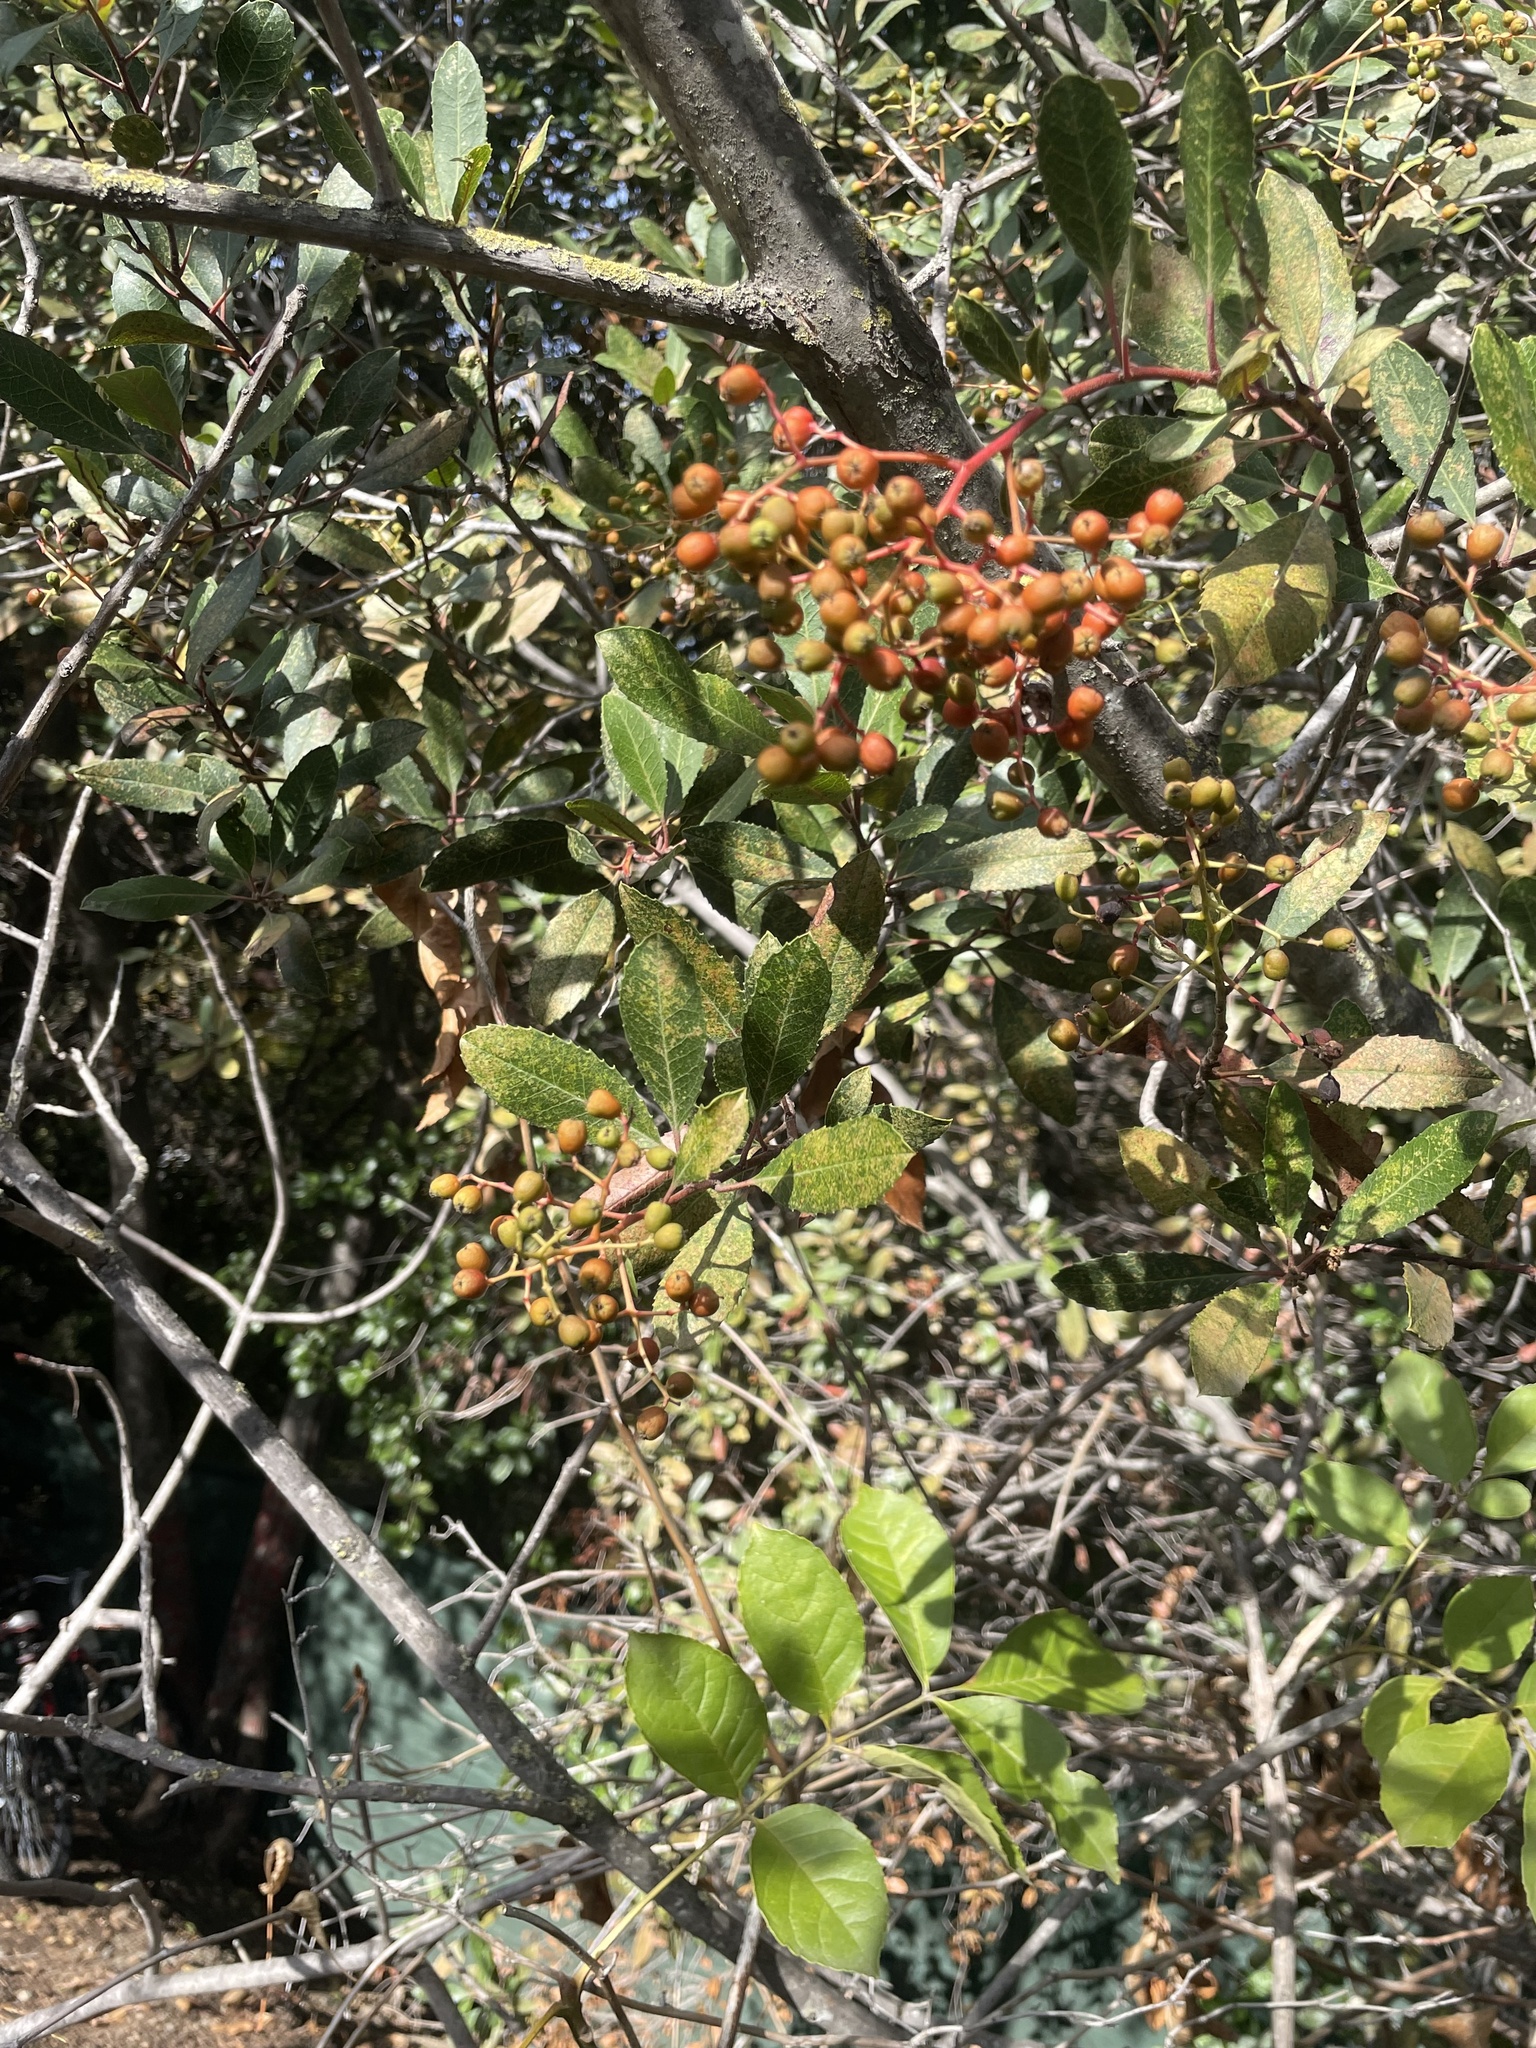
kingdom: Plantae
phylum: Tracheophyta
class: Magnoliopsida
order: Rosales
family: Rosaceae
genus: Heteromeles
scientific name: Heteromeles arbutifolia
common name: California-holly
